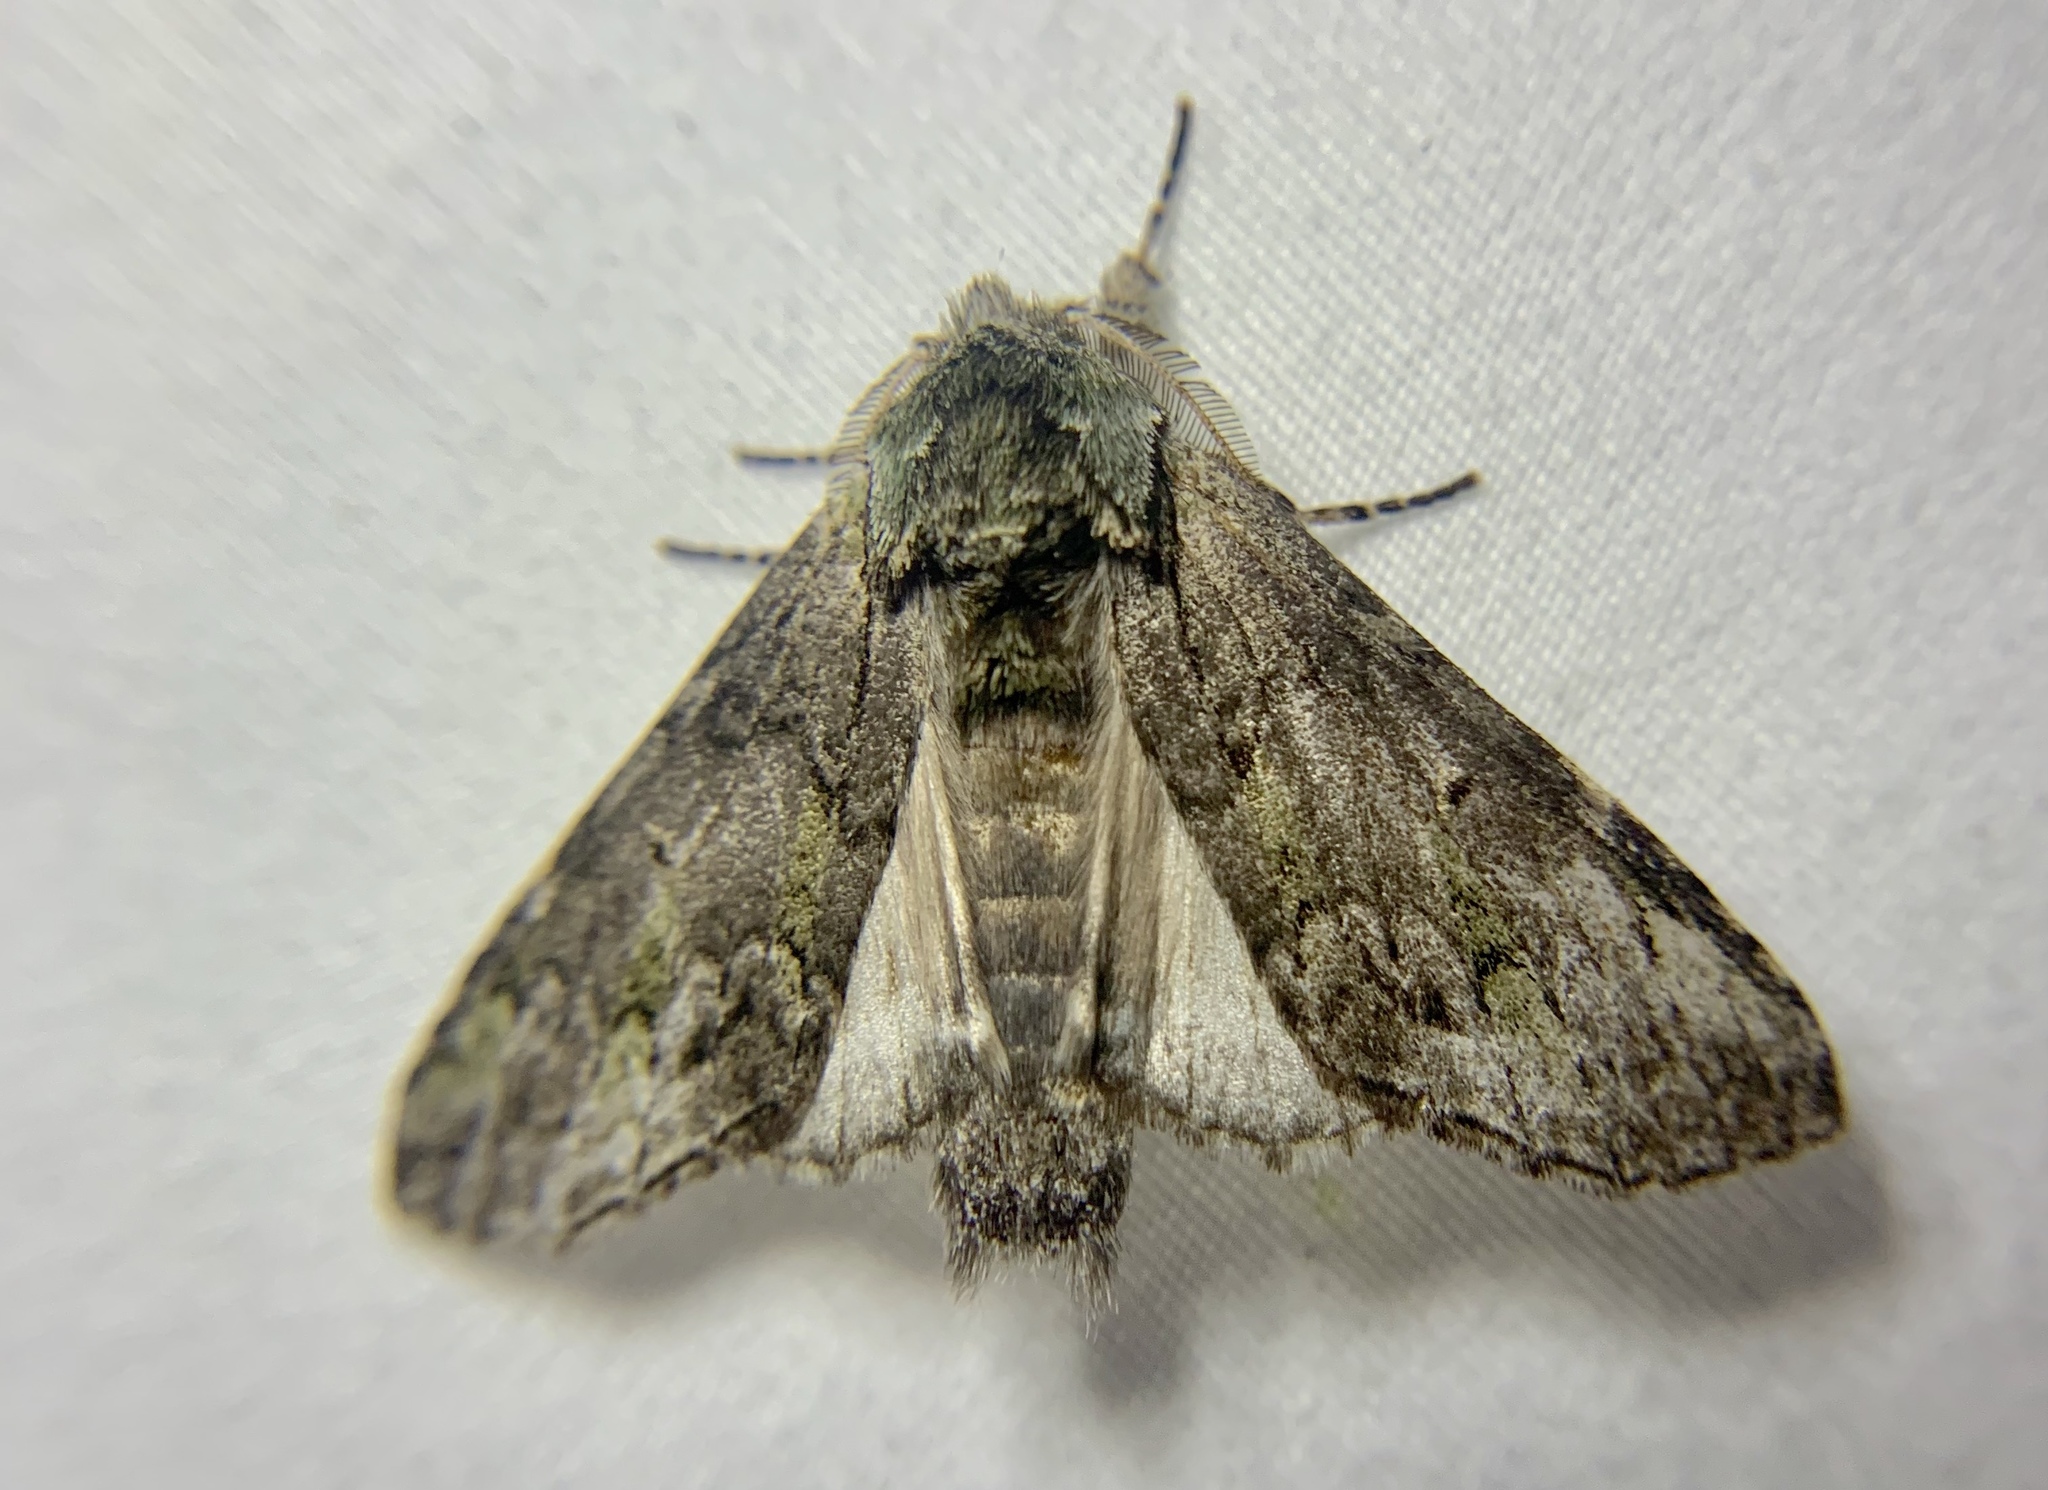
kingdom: Animalia
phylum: Arthropoda
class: Insecta
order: Lepidoptera
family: Notodontidae
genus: Macrurocampa
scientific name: Macrurocampa marthesia
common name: Mottled prominent
